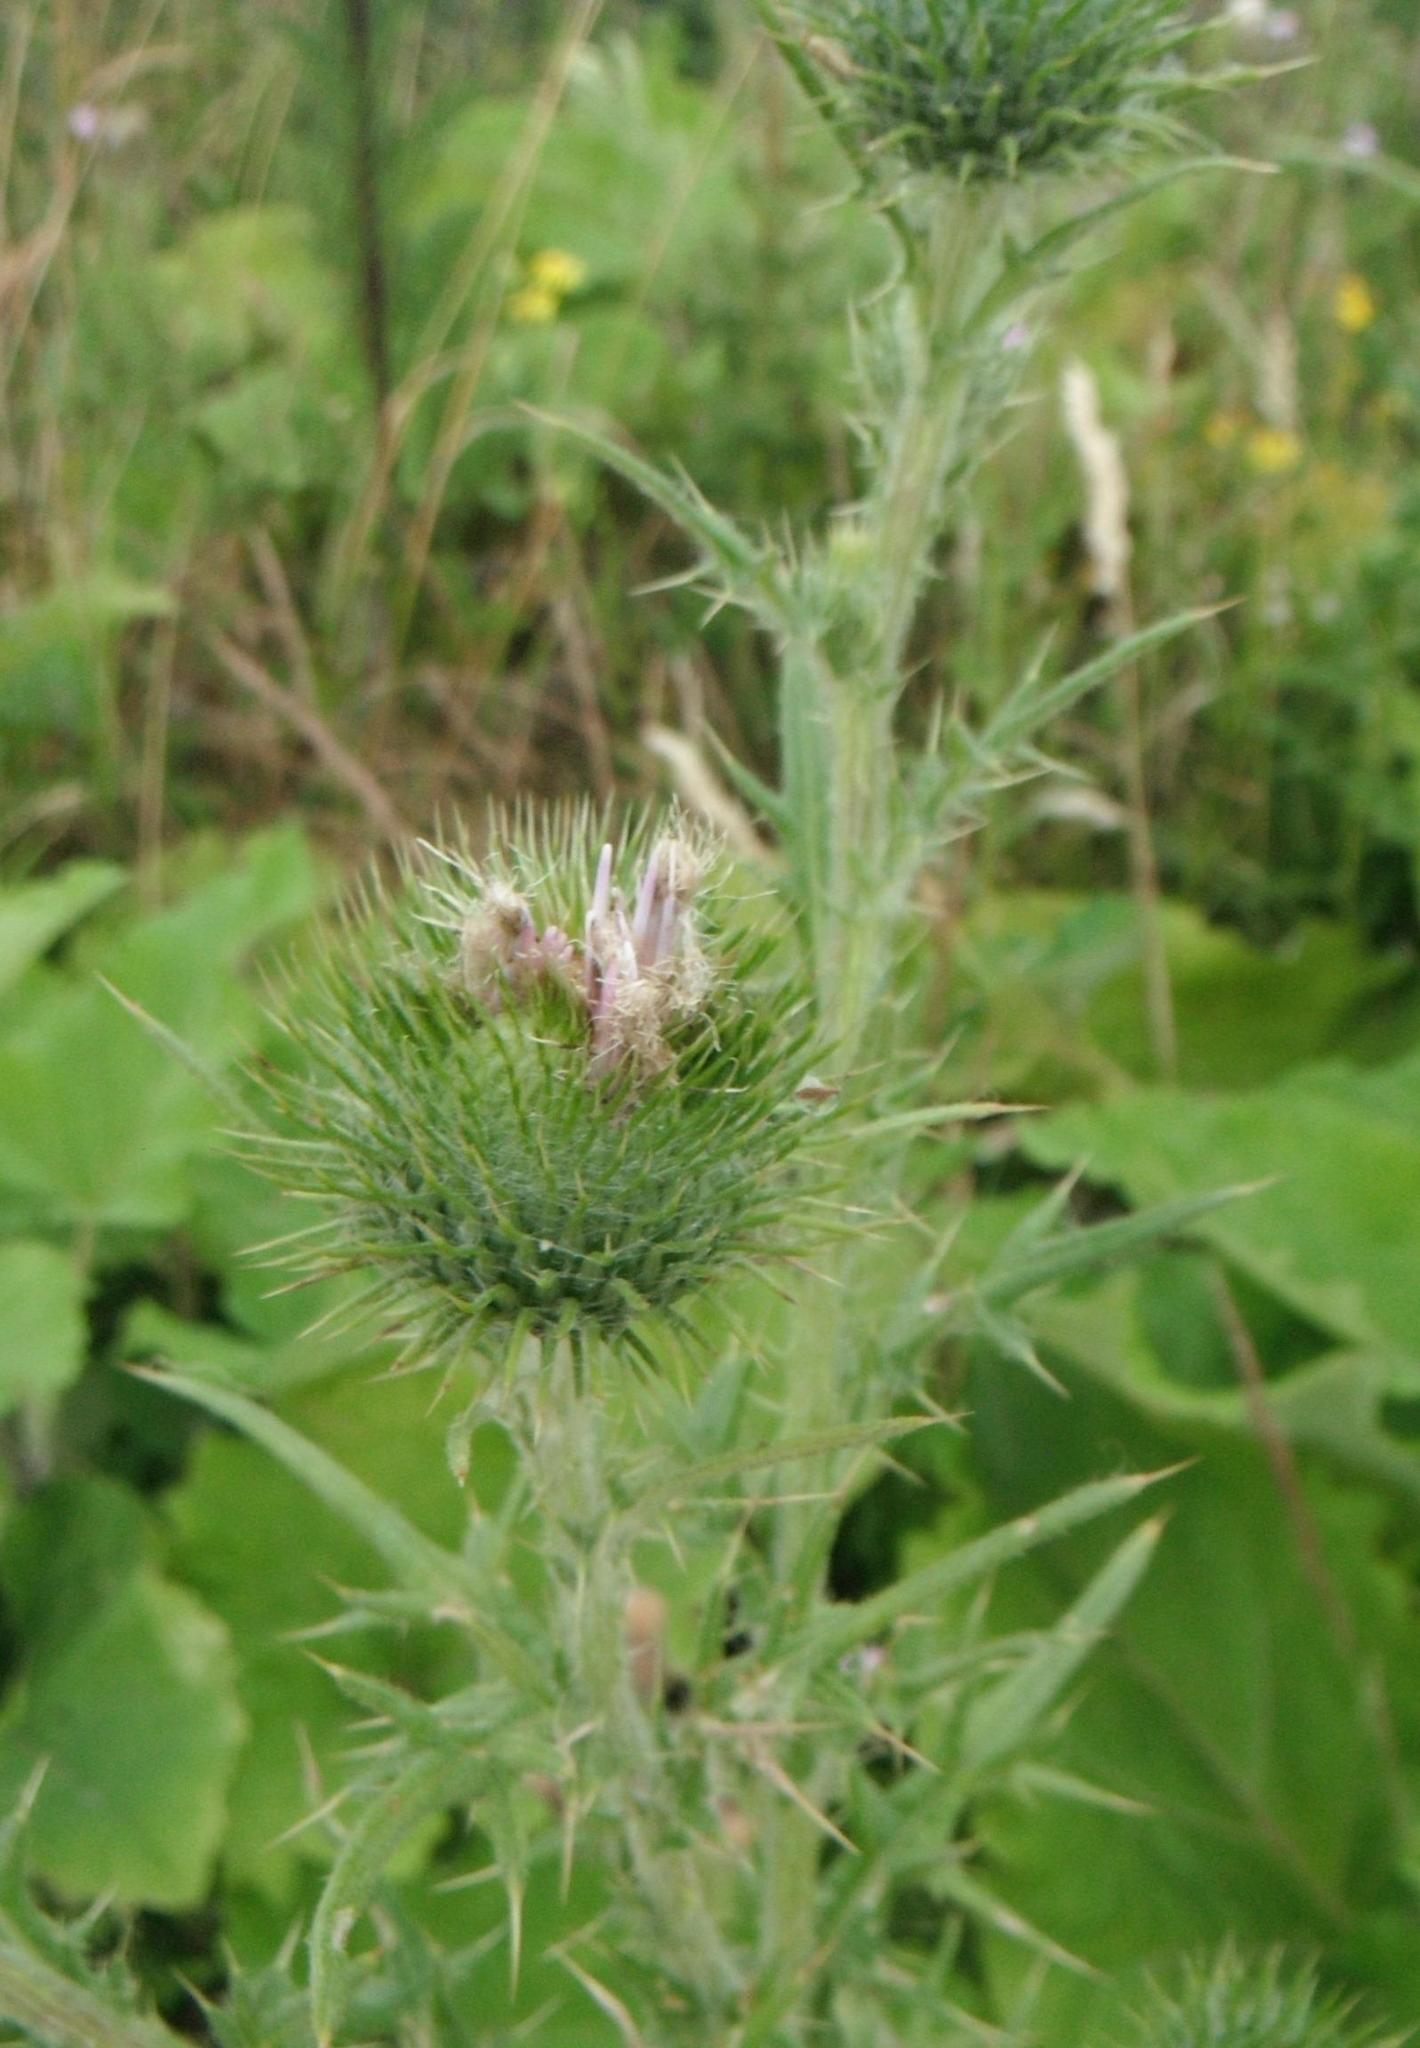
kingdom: Plantae
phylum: Tracheophyta
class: Magnoliopsida
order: Asterales
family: Asteraceae
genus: Cirsium
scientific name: Cirsium vulgare
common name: Bull thistle
